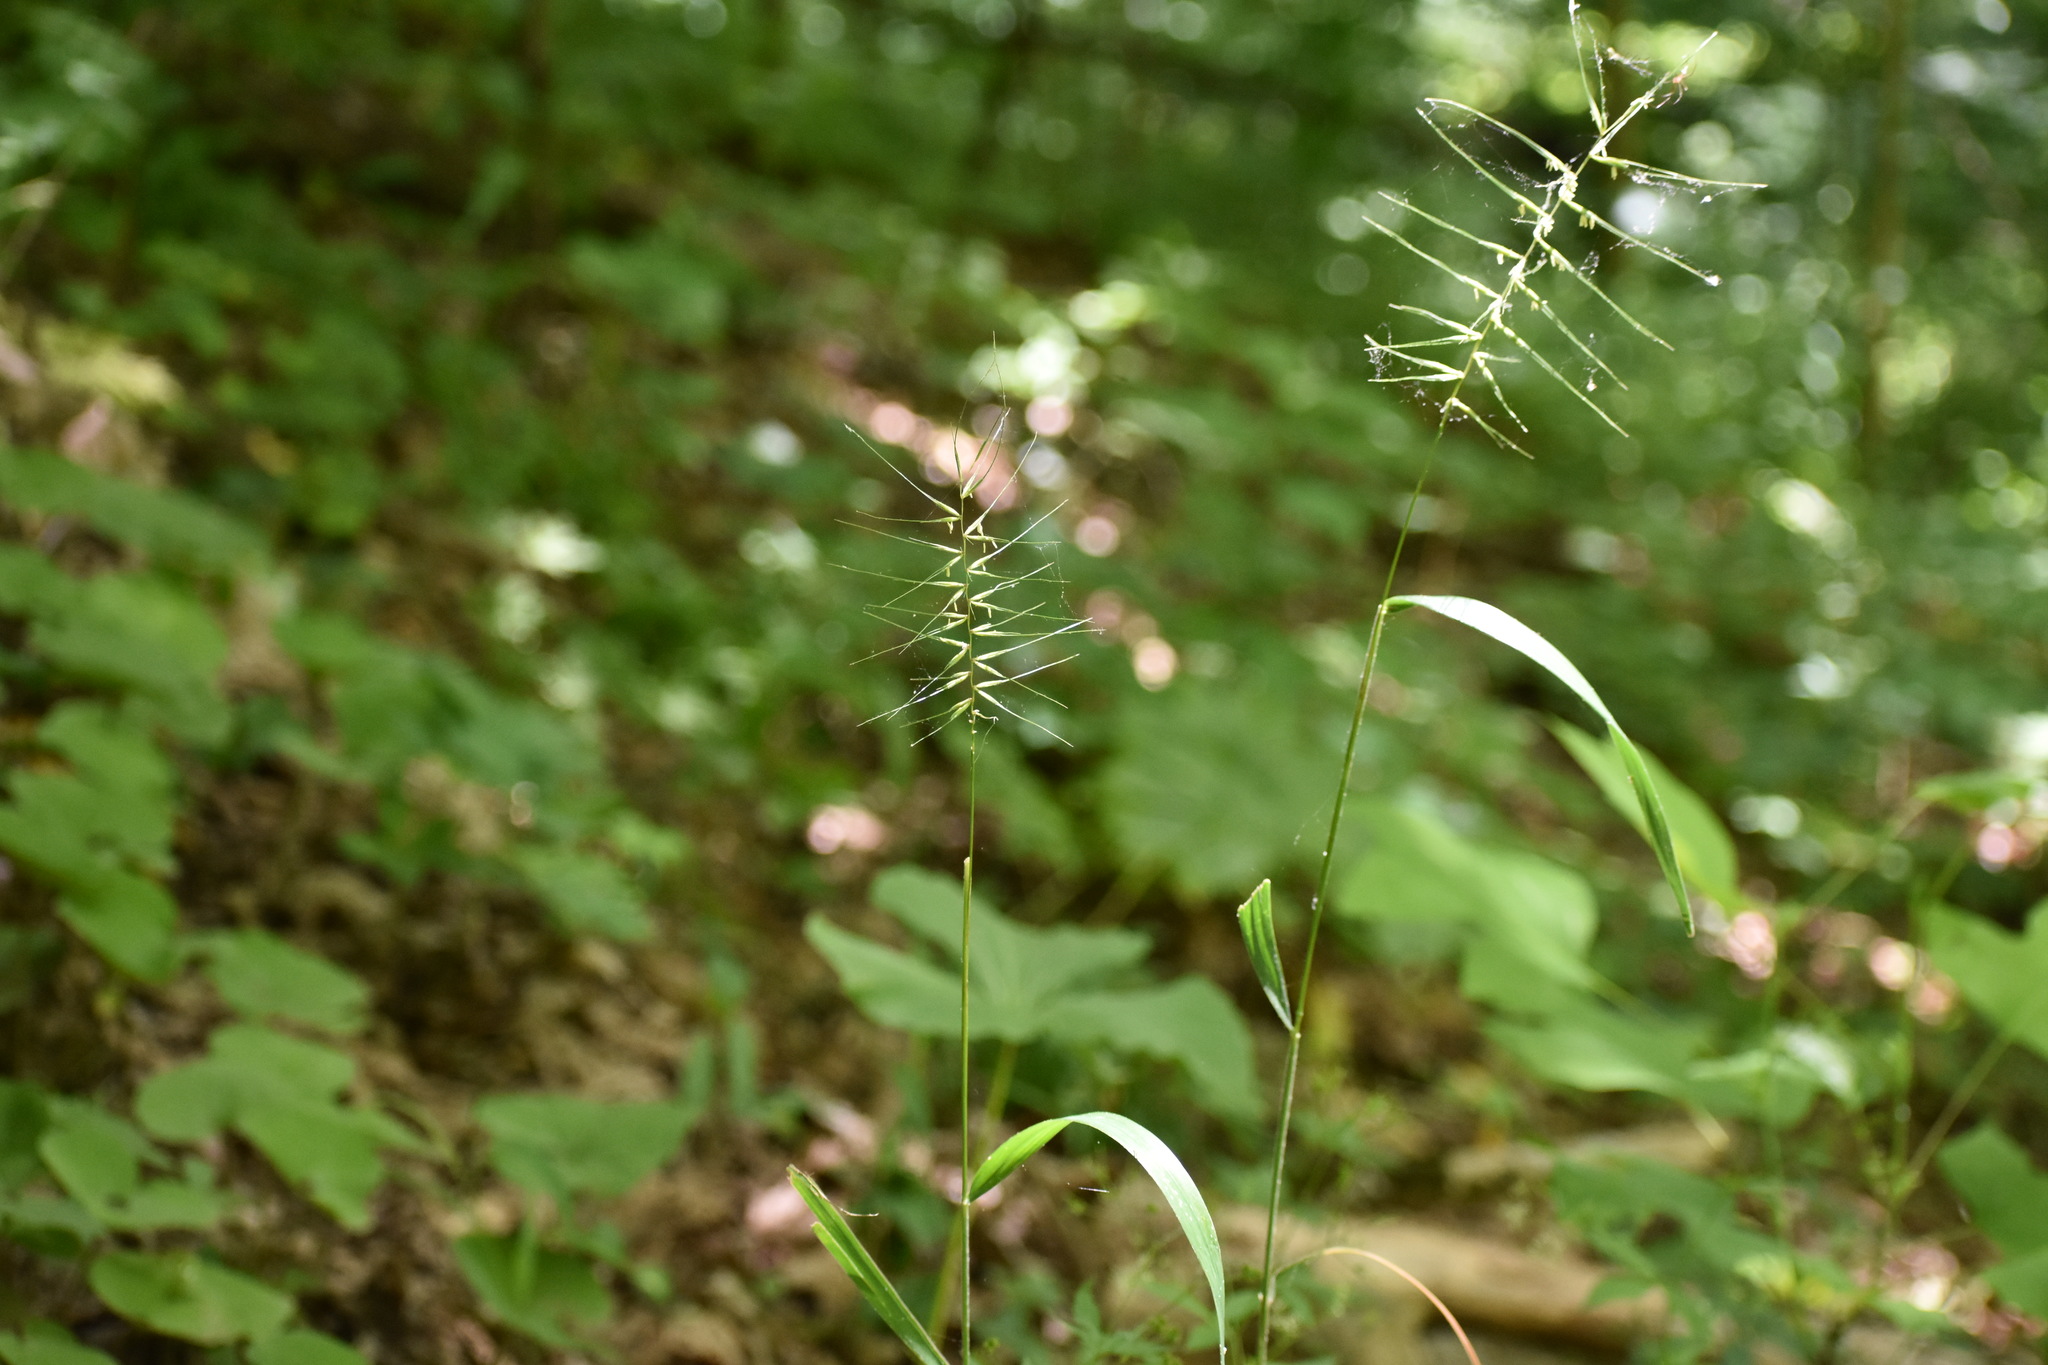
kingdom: Plantae
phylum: Tracheophyta
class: Liliopsida
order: Poales
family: Poaceae
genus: Elymus
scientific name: Elymus hystrix
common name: Bottlebrush grass
